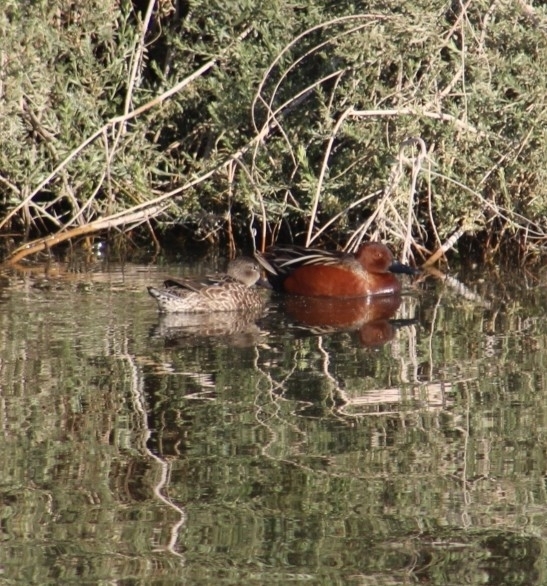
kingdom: Animalia
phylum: Chordata
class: Aves
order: Anseriformes
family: Anatidae
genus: Spatula
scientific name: Spatula cyanoptera
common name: Cinnamon teal
